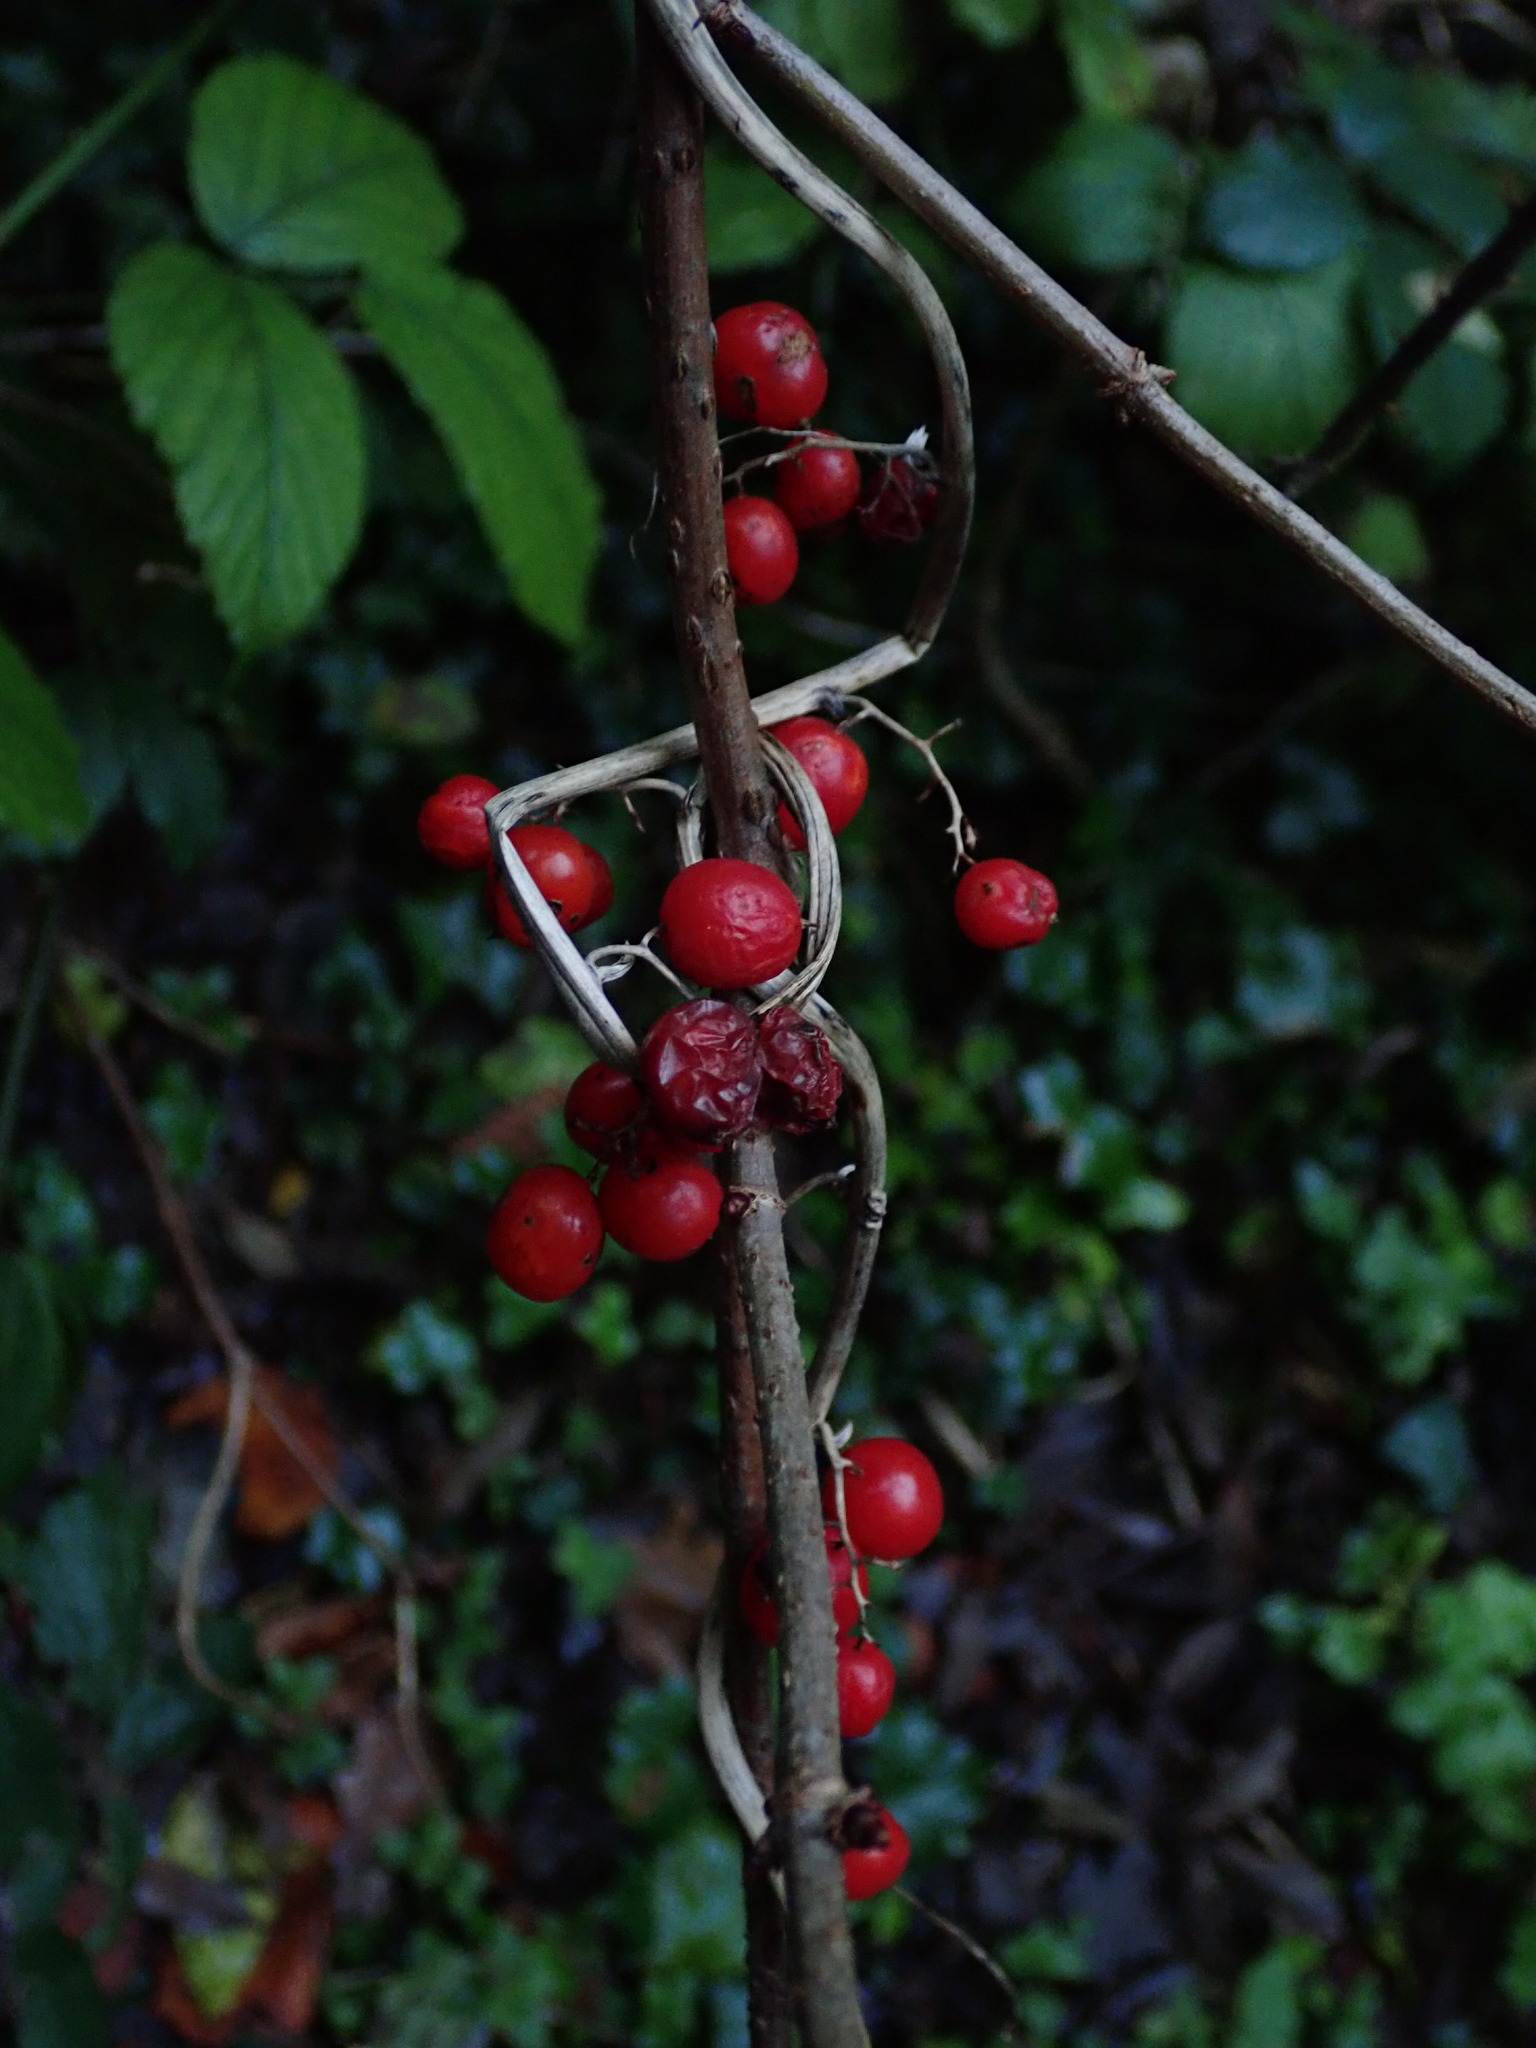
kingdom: Plantae
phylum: Tracheophyta
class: Liliopsida
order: Dioscoreales
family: Dioscoreaceae
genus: Dioscorea
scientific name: Dioscorea communis
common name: Black-bindweed
